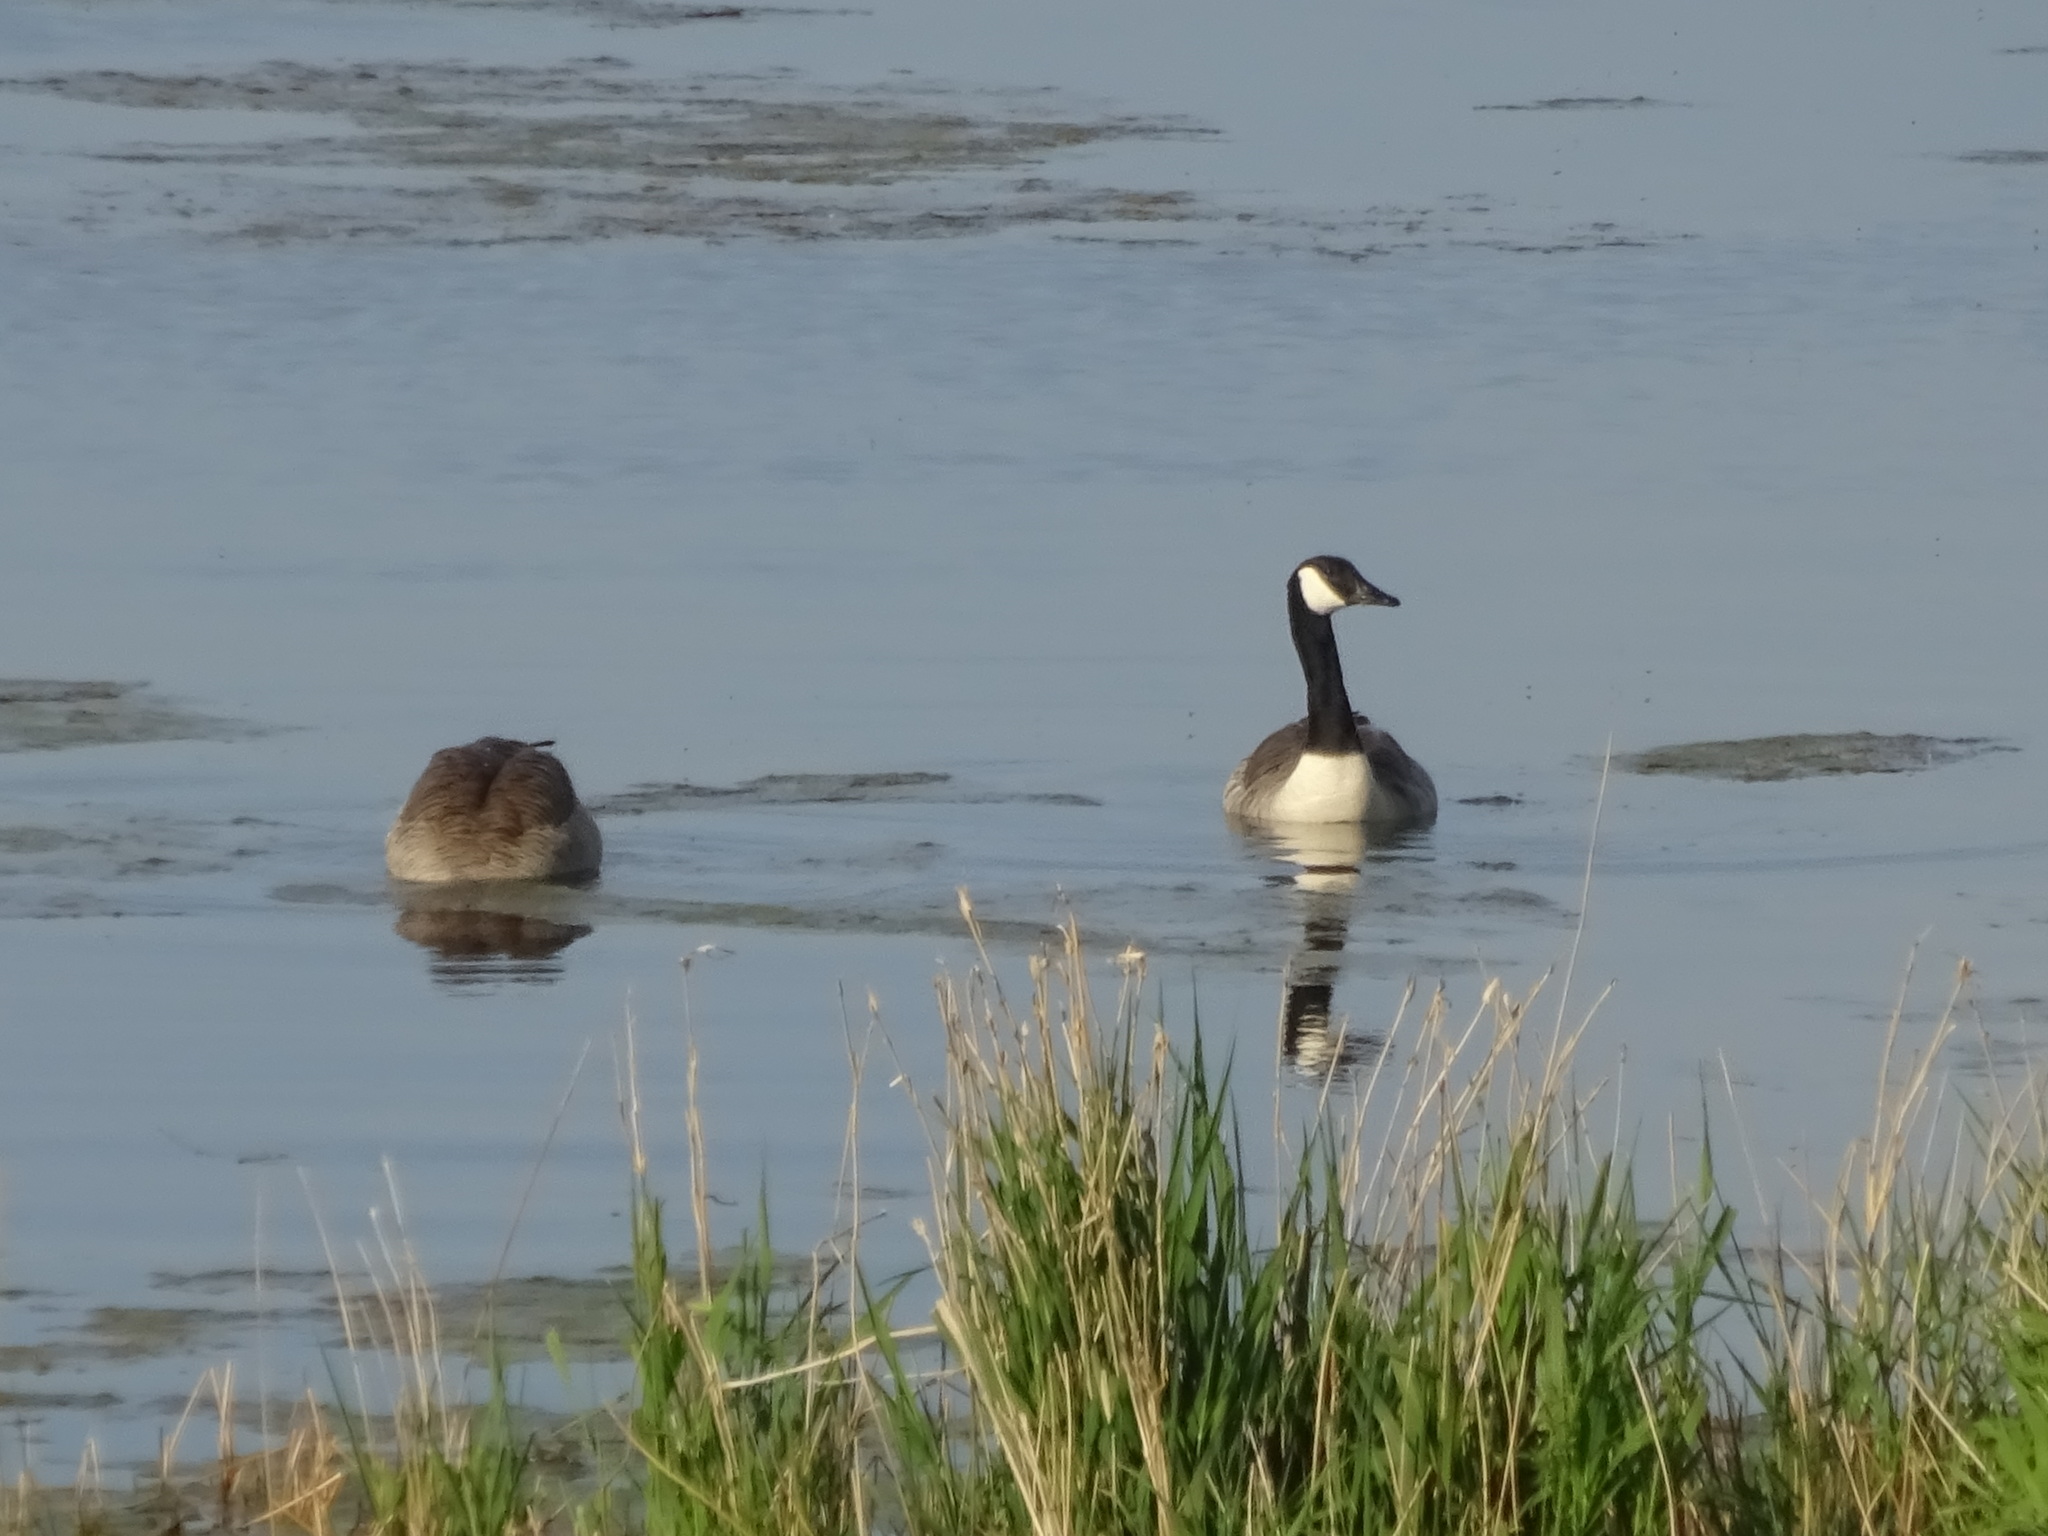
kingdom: Animalia
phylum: Chordata
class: Aves
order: Anseriformes
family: Anatidae
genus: Branta
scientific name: Branta canadensis
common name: Canada goose
